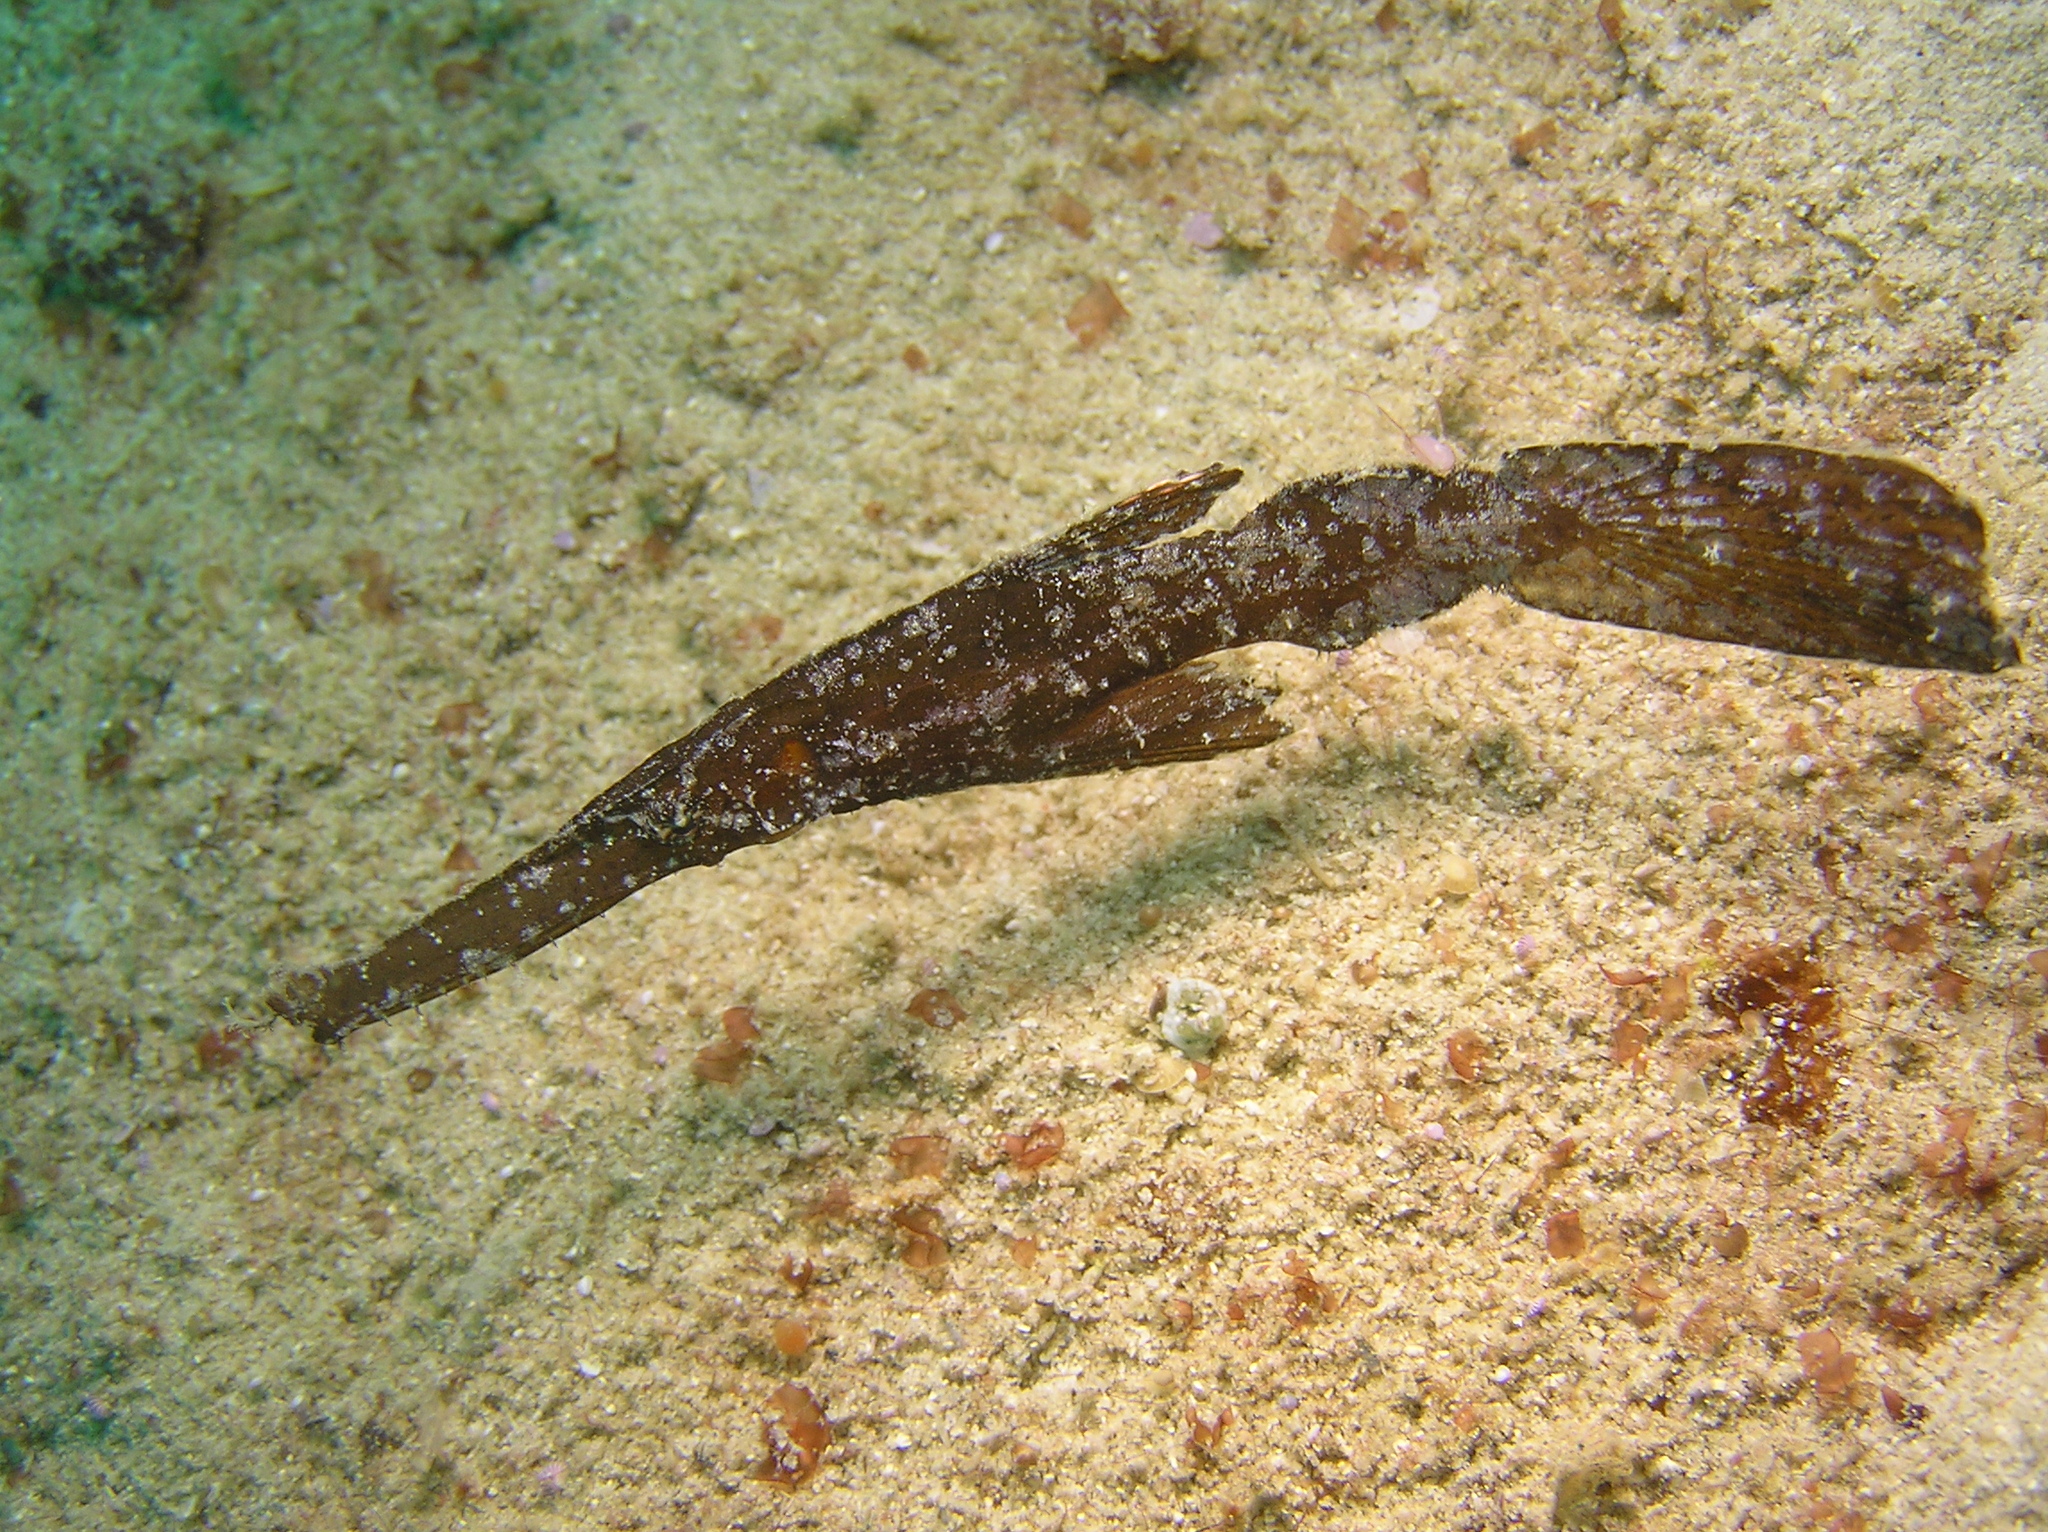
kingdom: Animalia
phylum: Chordata
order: Syngnathiformes
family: Solenostomidae
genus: Solenostomus
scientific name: Solenostomus cyanopterus
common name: Blue-finned ghost pipefish
